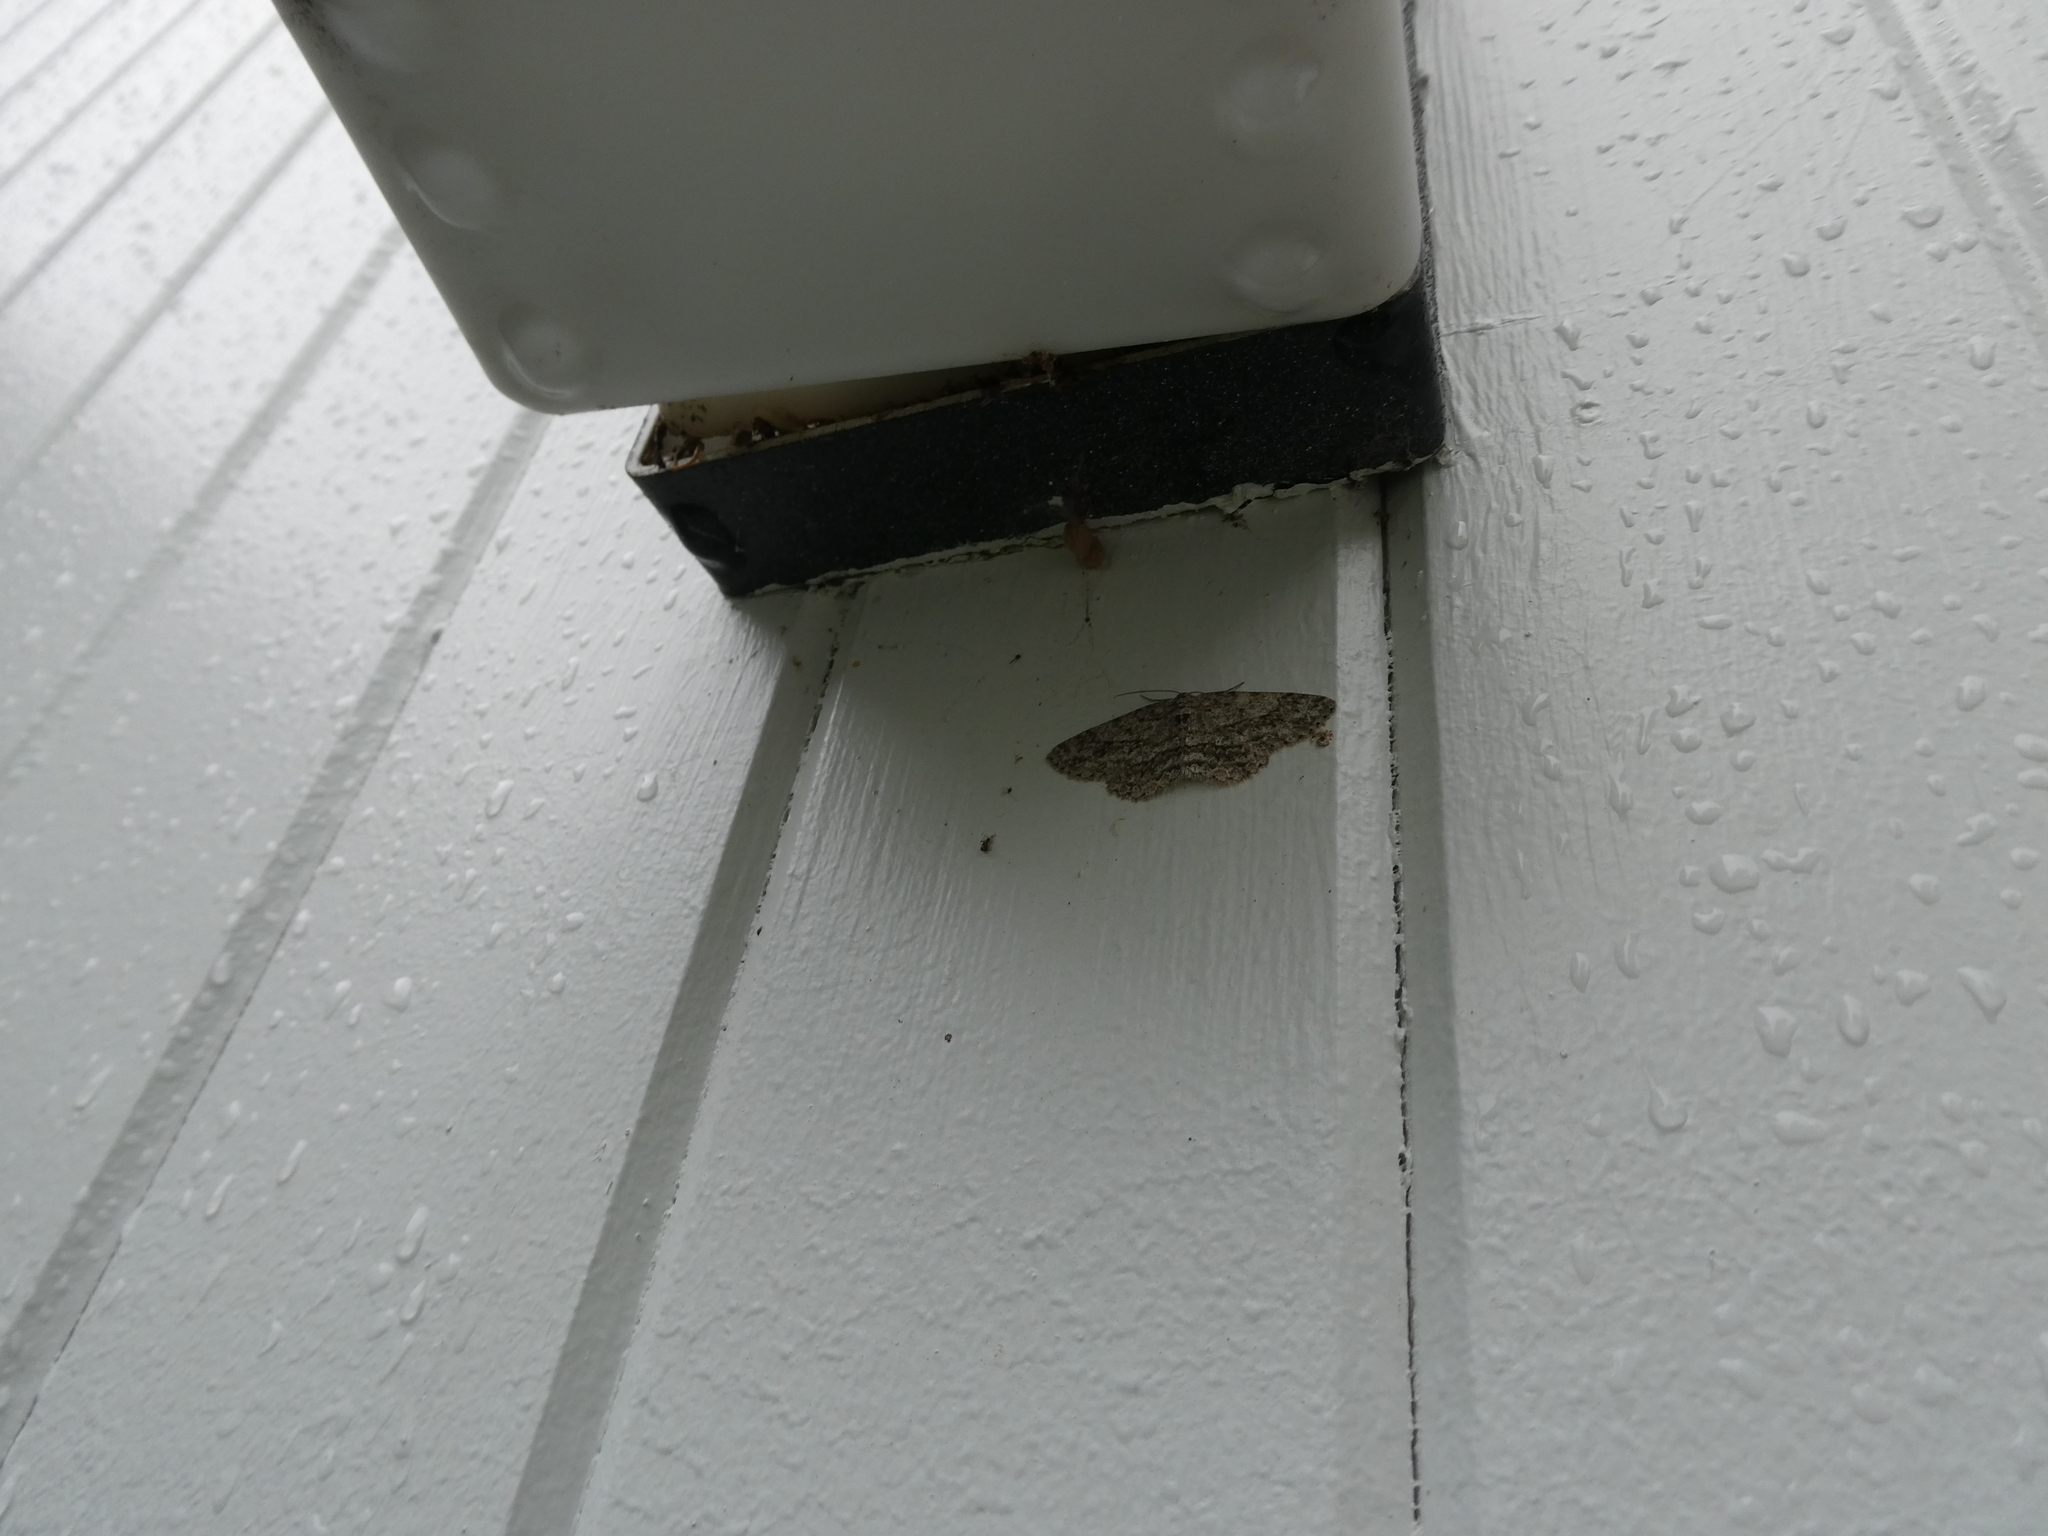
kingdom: Animalia
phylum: Arthropoda
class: Insecta
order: Lepidoptera
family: Geometridae
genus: Ectropis
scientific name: Ectropis crepuscularia
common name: Engrailed
